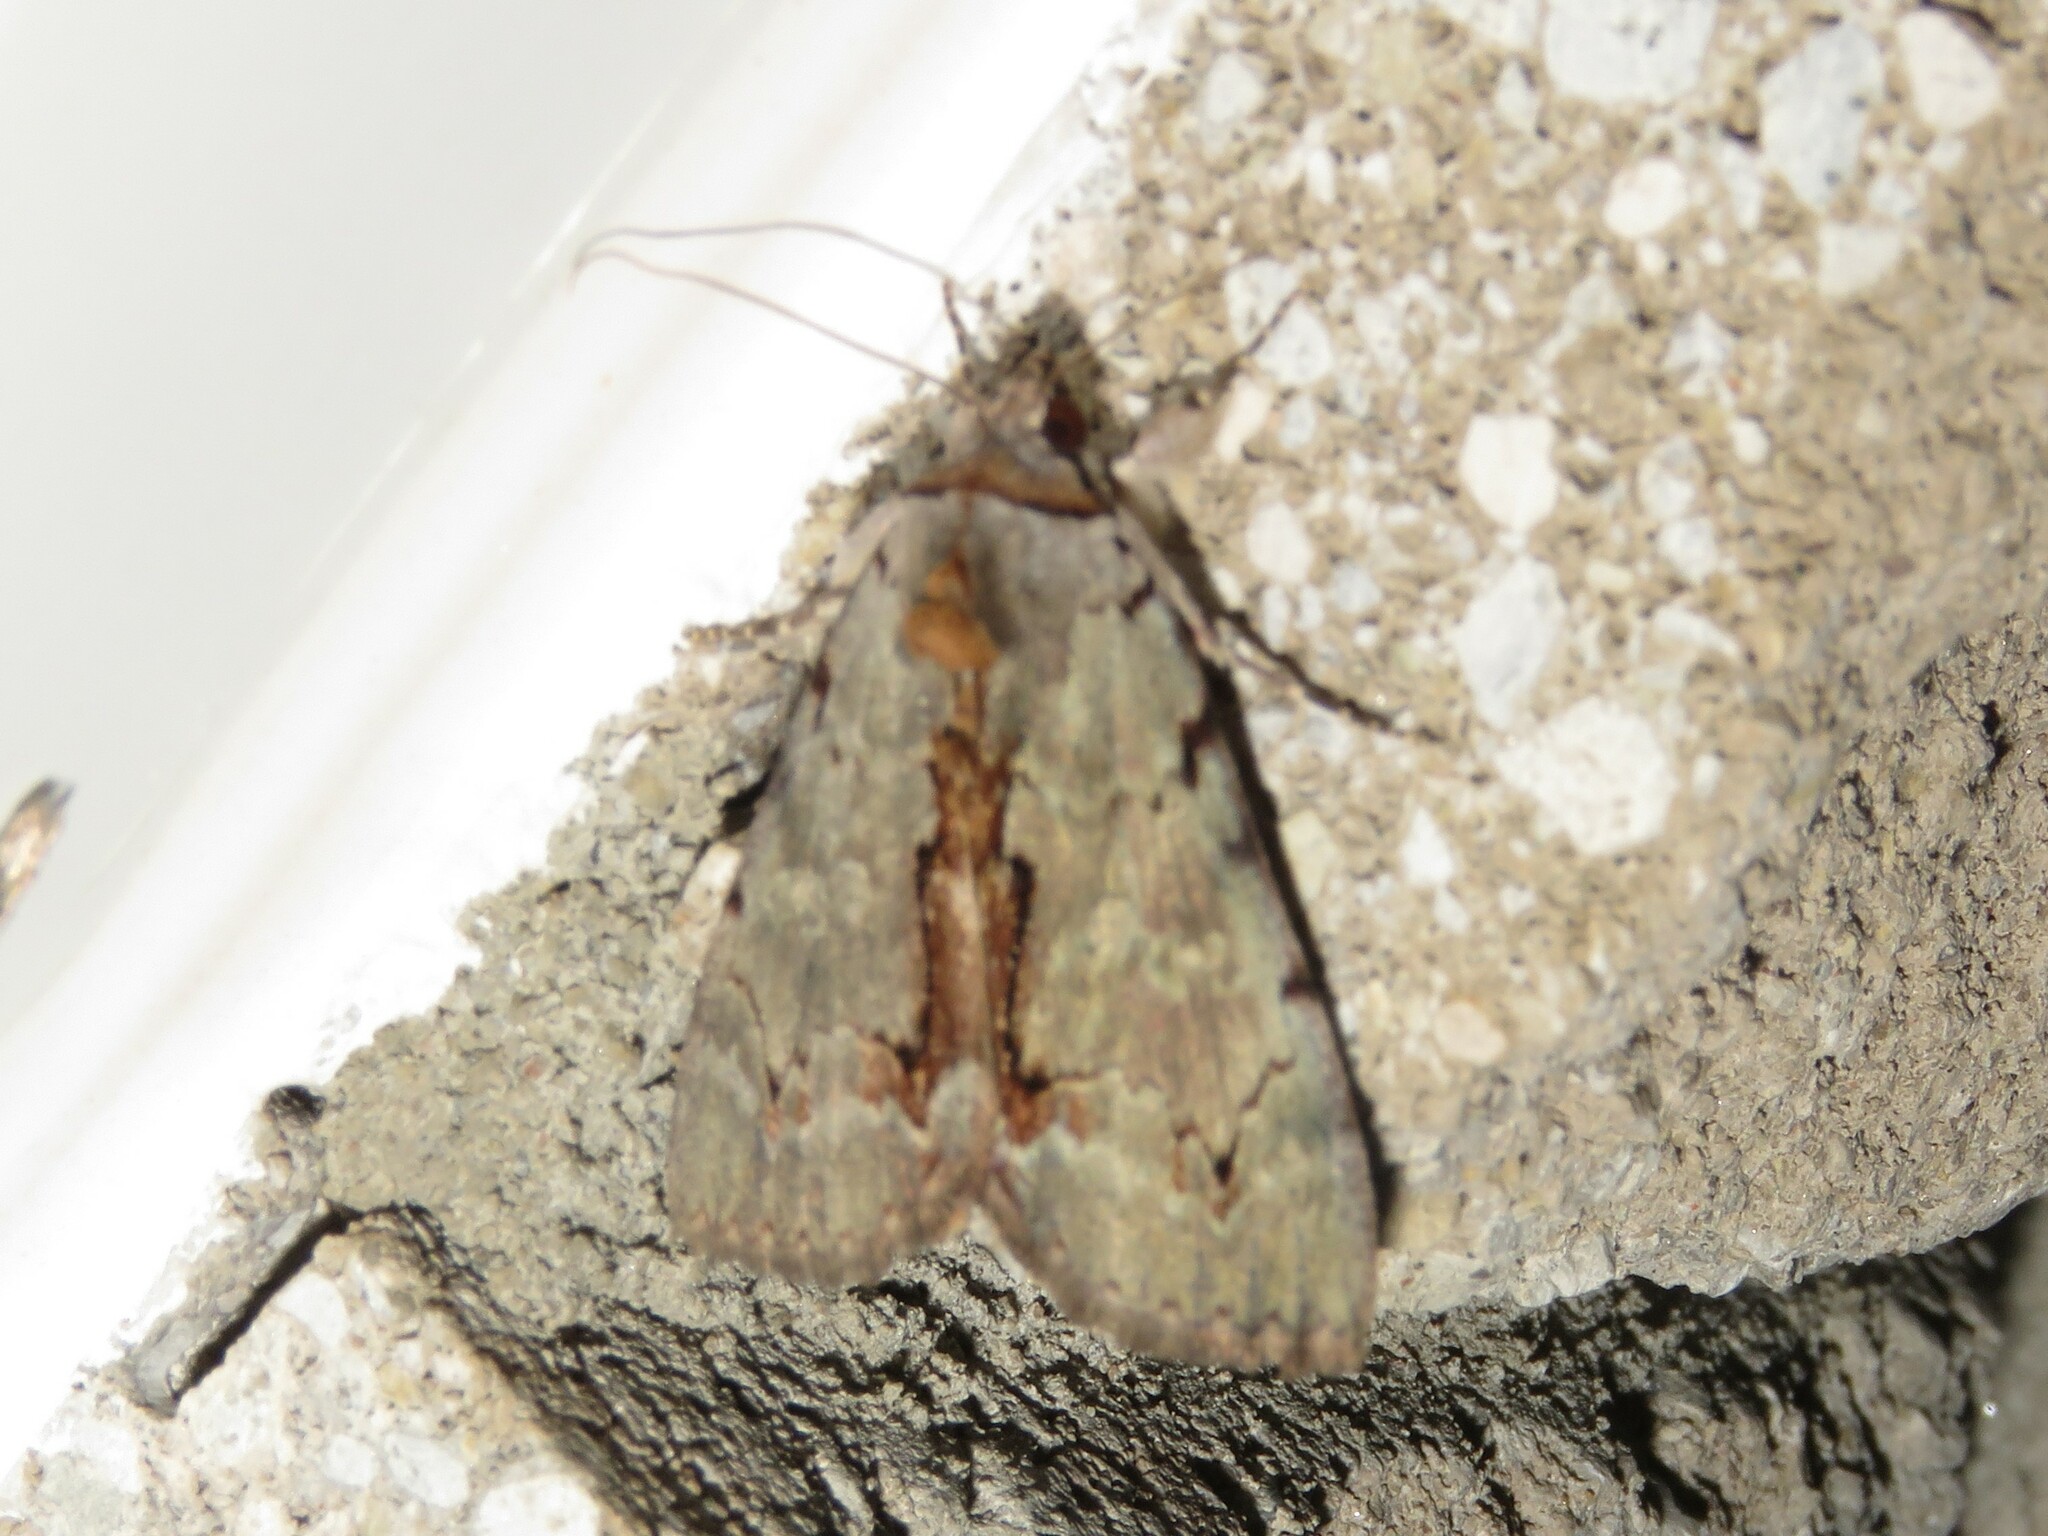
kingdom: Animalia
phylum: Arthropoda
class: Insecta
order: Lepidoptera
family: Erebidae
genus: Catocala
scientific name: Catocala grynea
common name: Woody underwing
